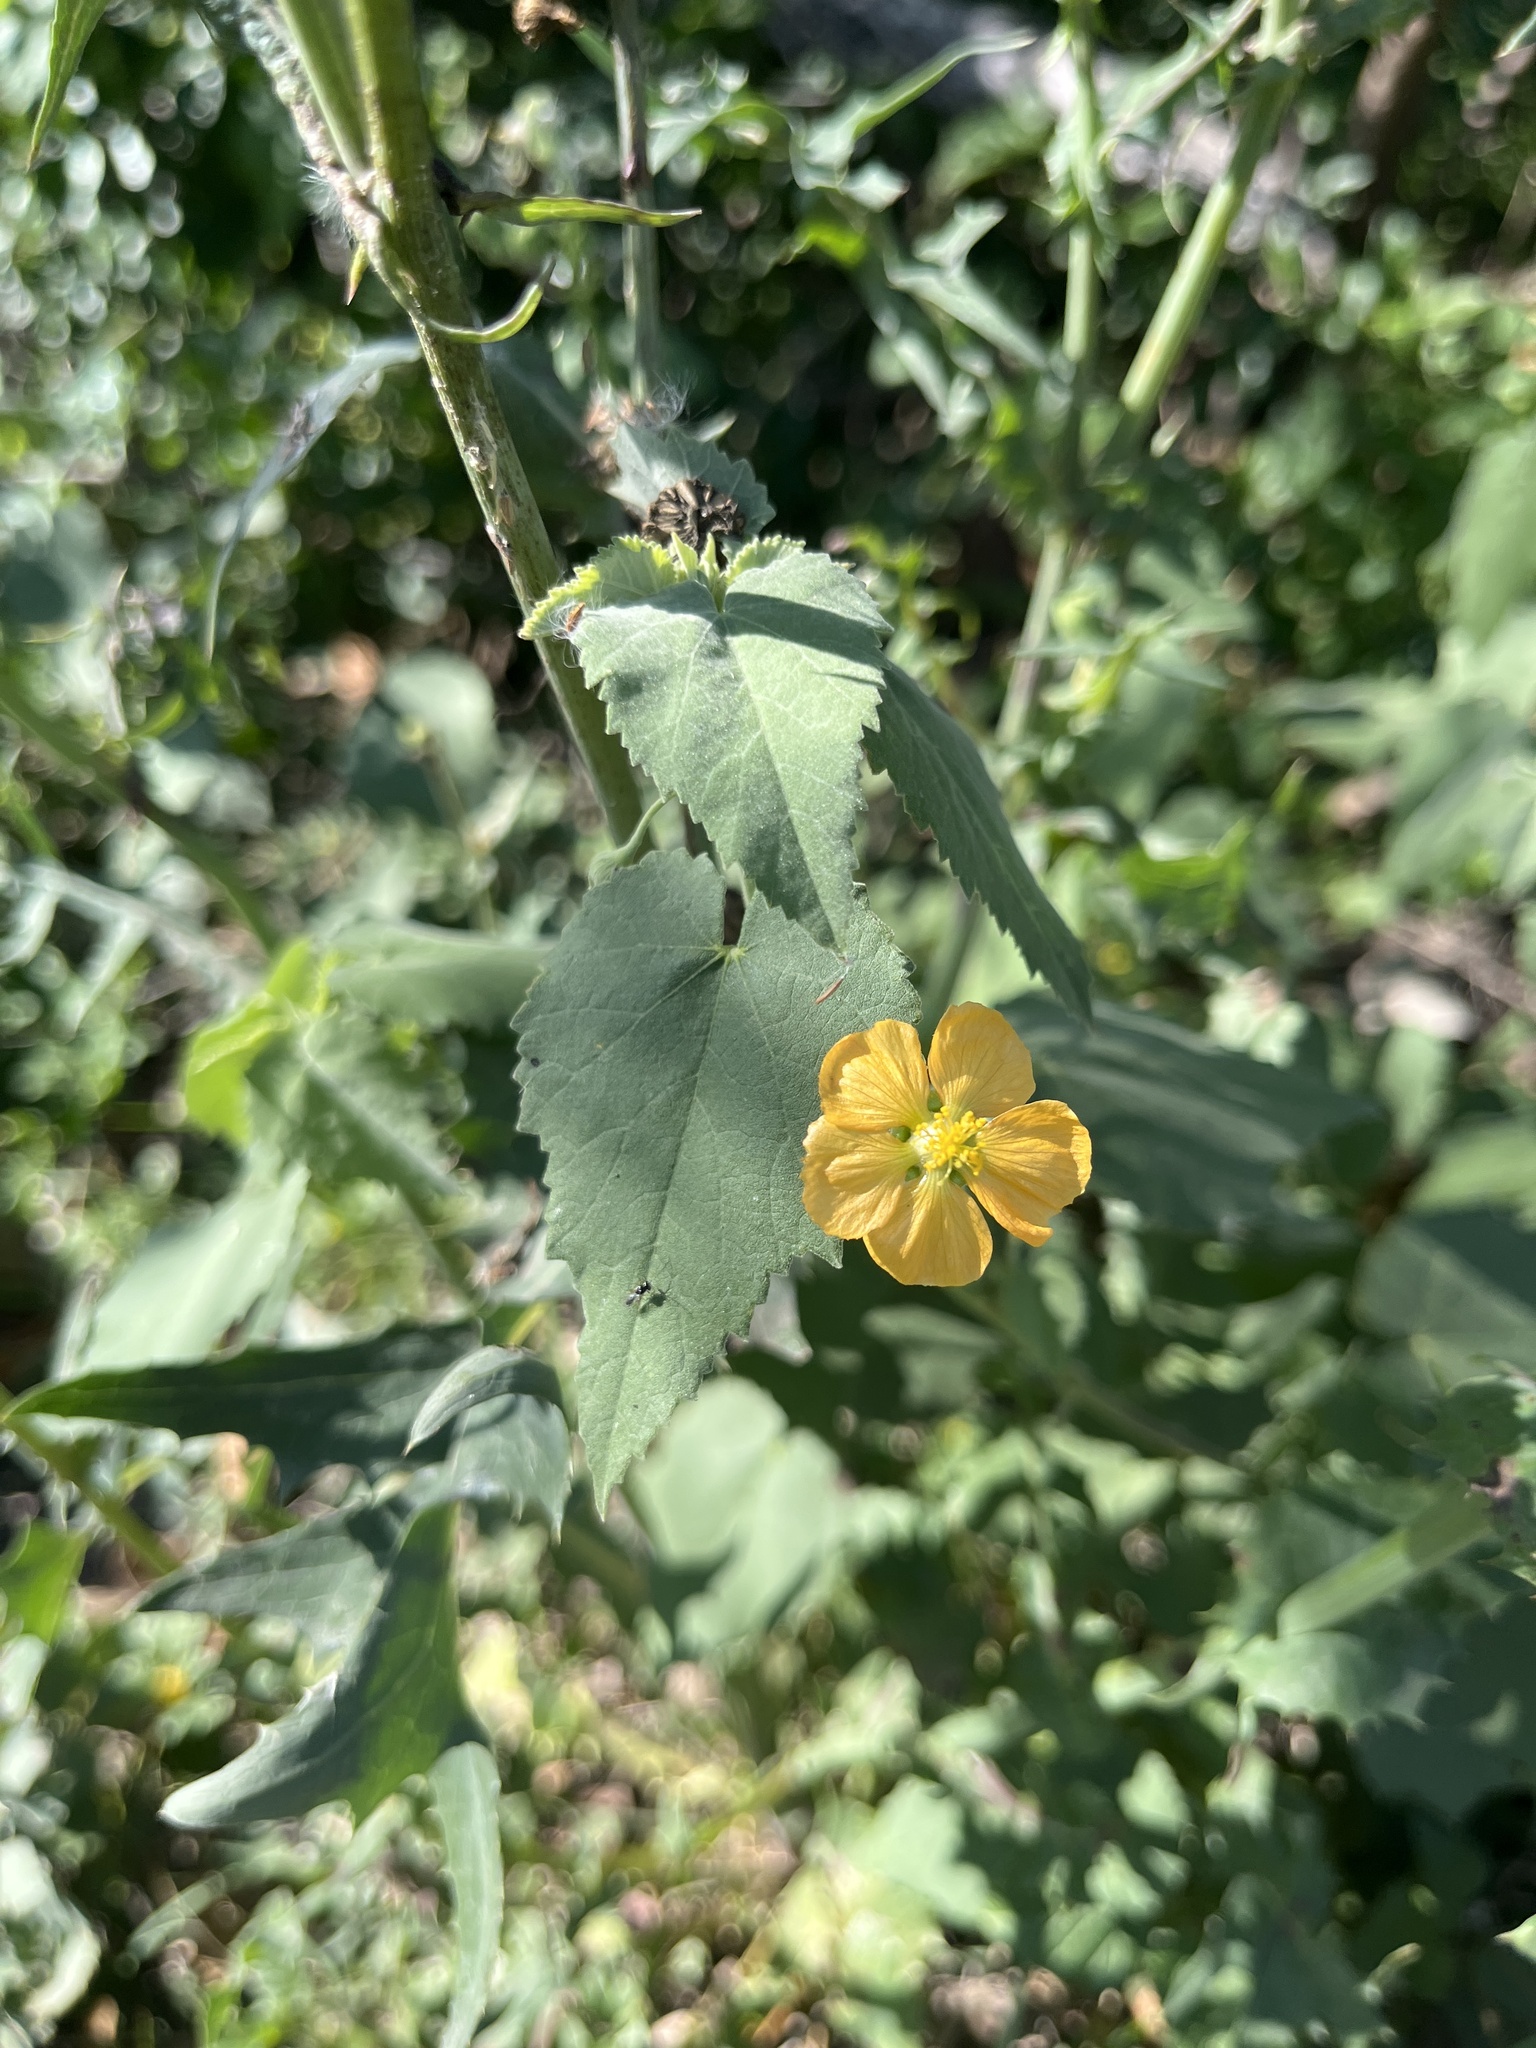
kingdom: Plantae
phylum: Tracheophyta
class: Magnoliopsida
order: Malvales
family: Malvaceae
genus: Abutilon
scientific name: Abutilon fruticosum
